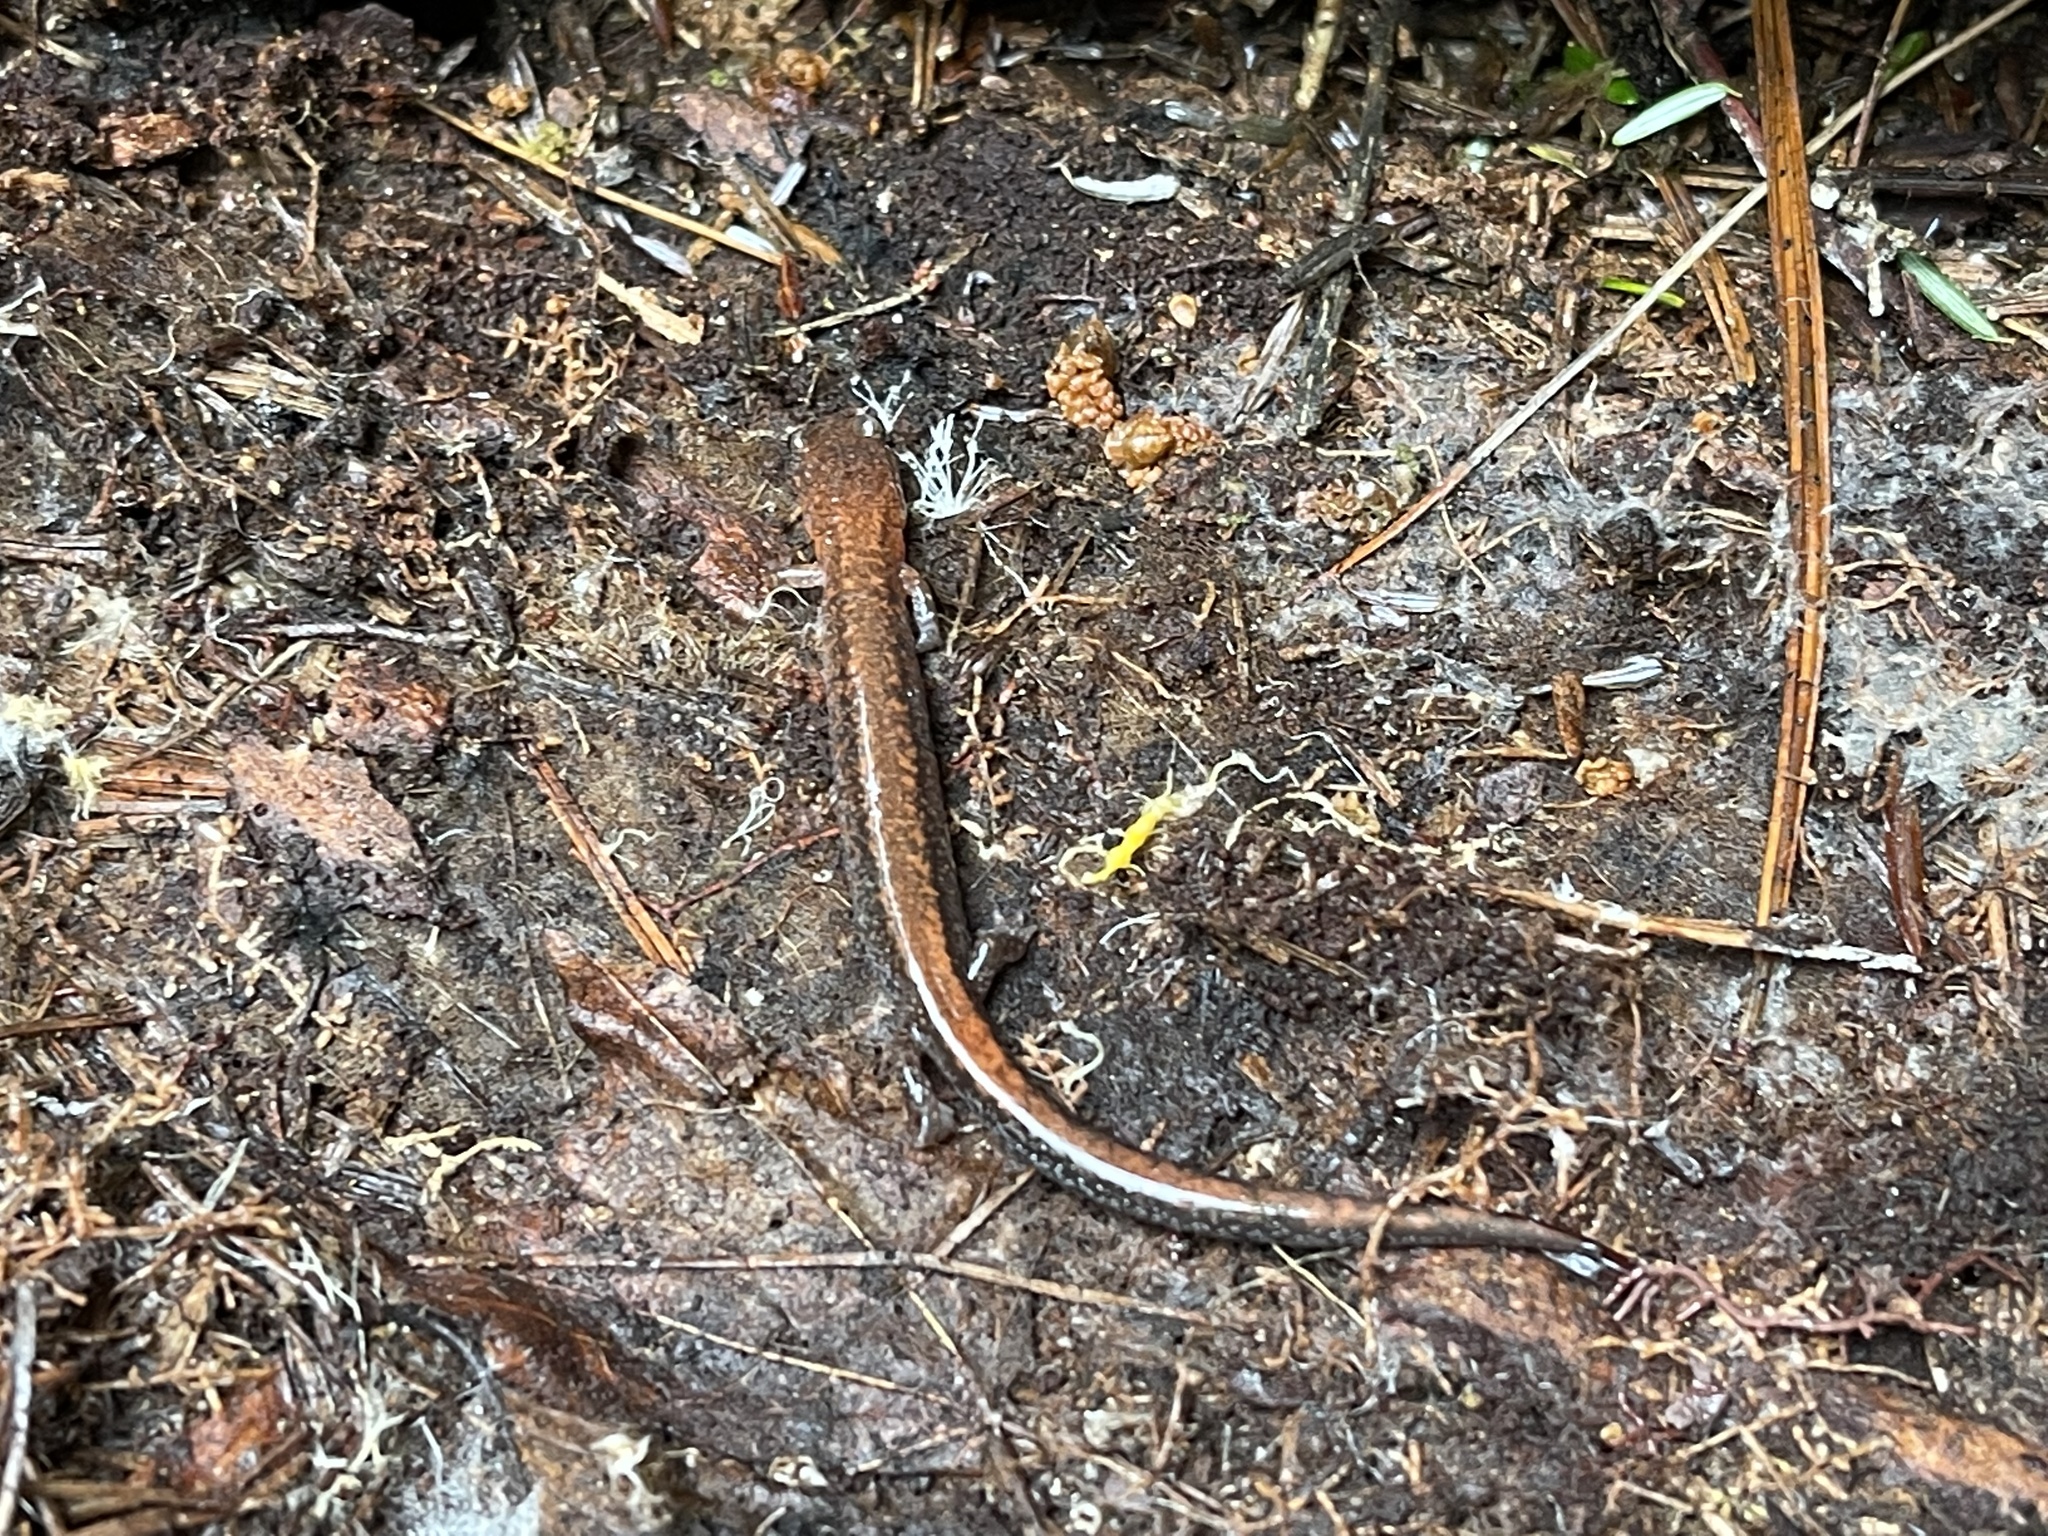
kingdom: Animalia
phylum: Chordata
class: Amphibia
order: Caudata
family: Plethodontidae
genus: Plethodon
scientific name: Plethodon cinereus
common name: Redback salamander
